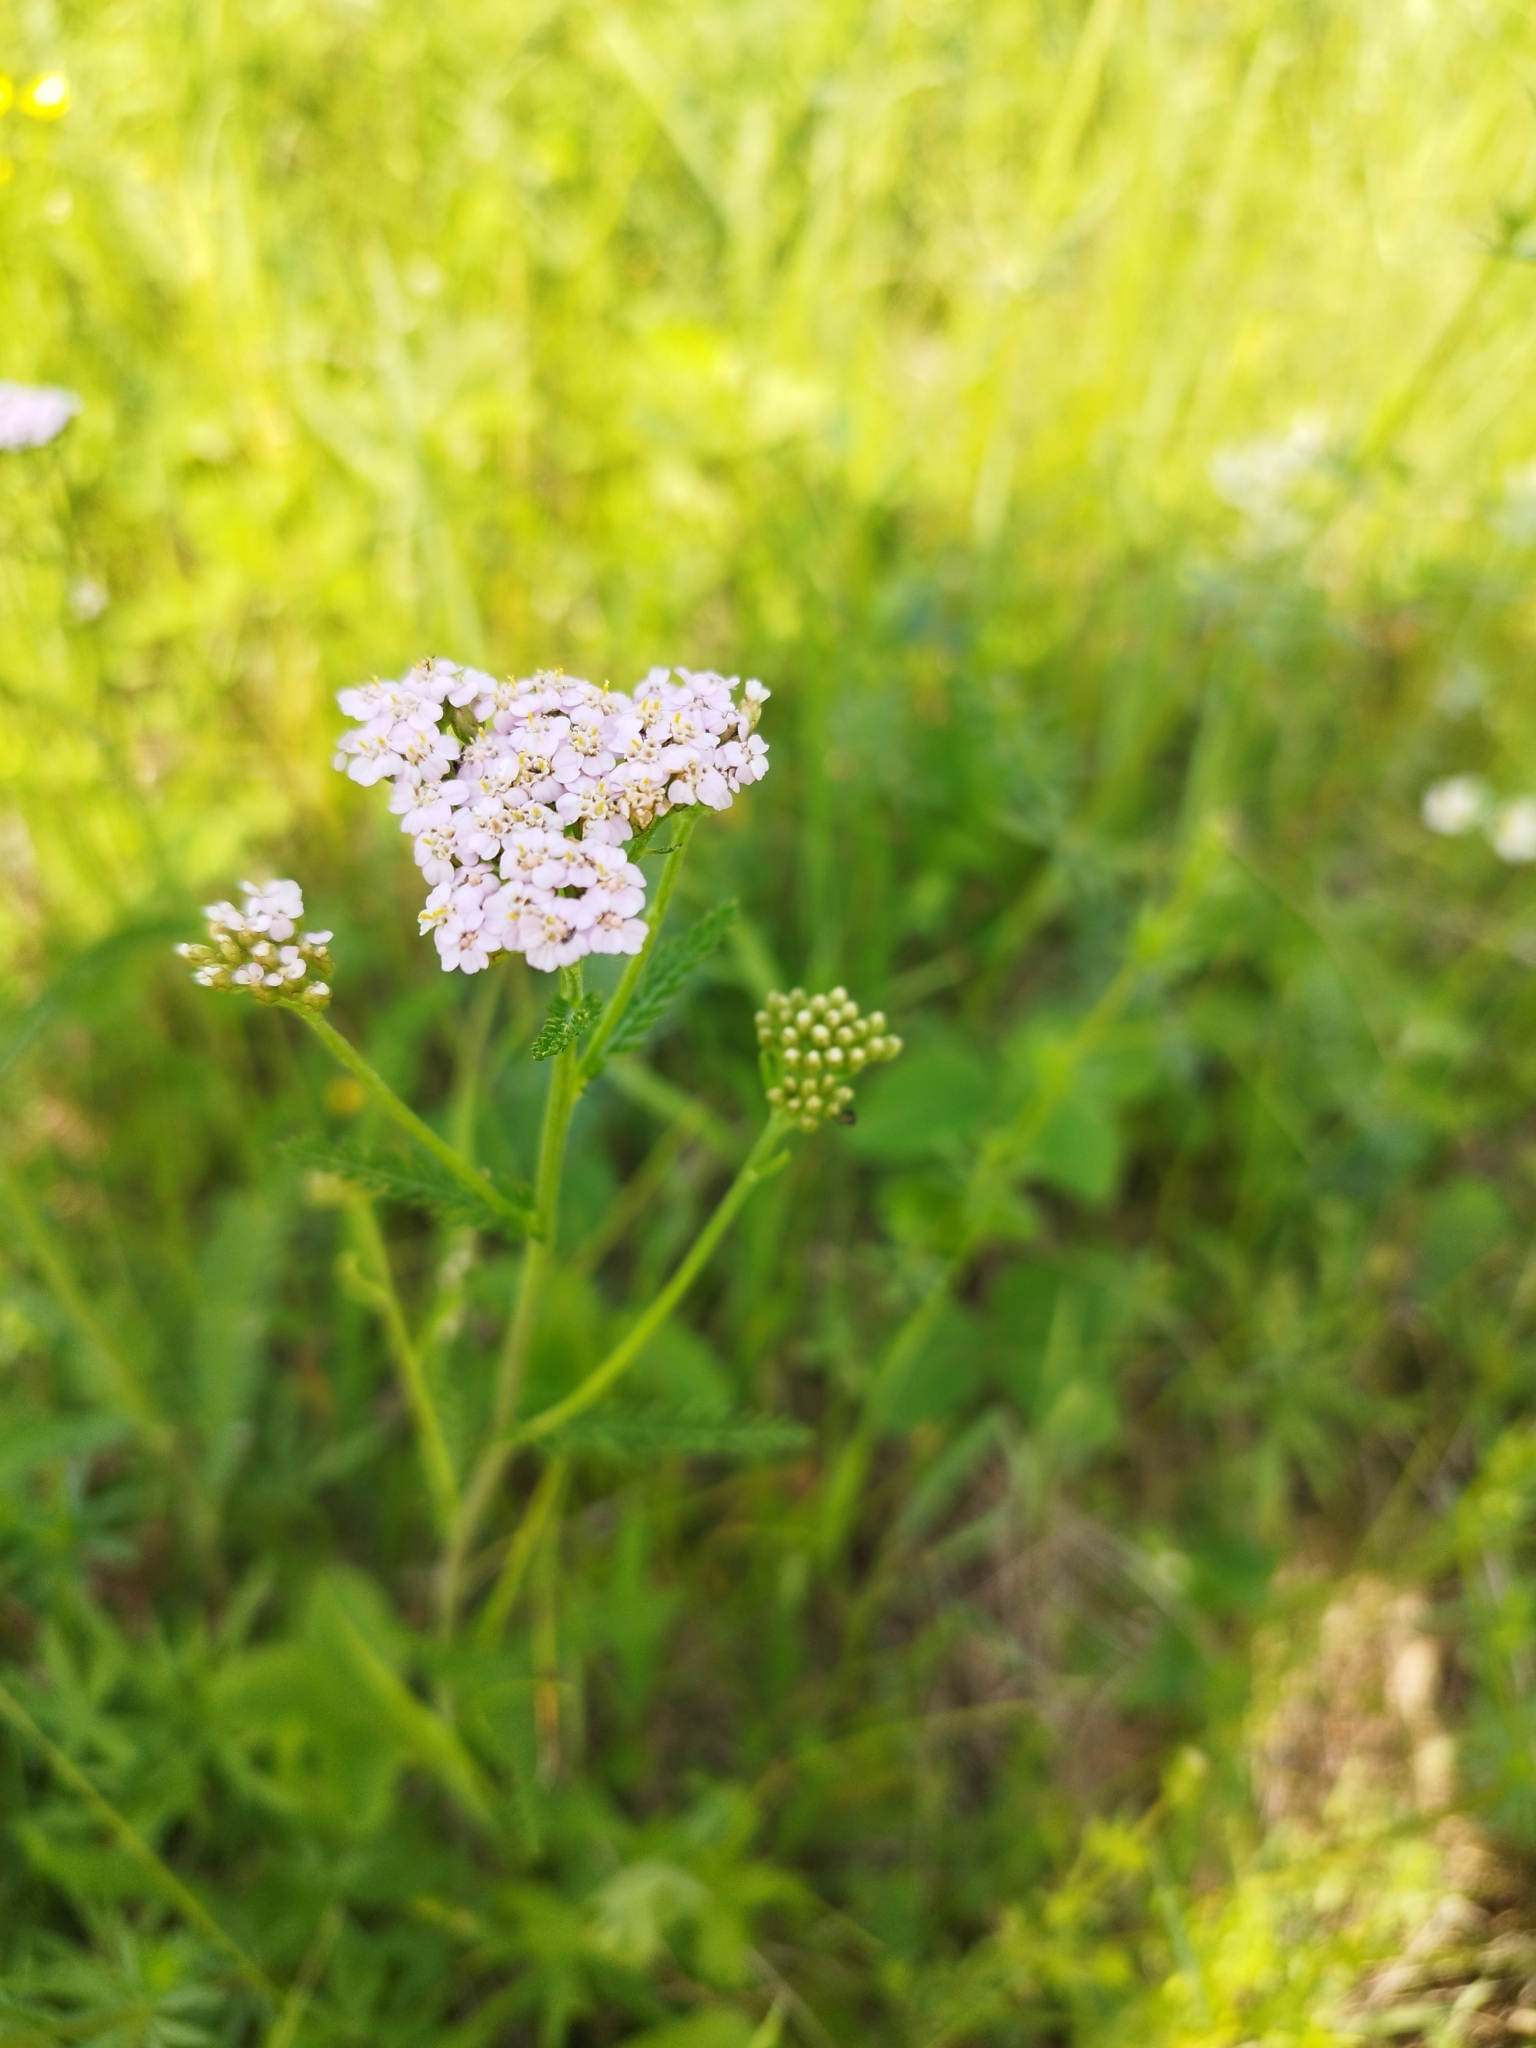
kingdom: Plantae
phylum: Tracheophyta
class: Magnoliopsida
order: Asterales
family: Asteraceae
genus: Achillea
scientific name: Achillea millefolium
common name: Yarrow
